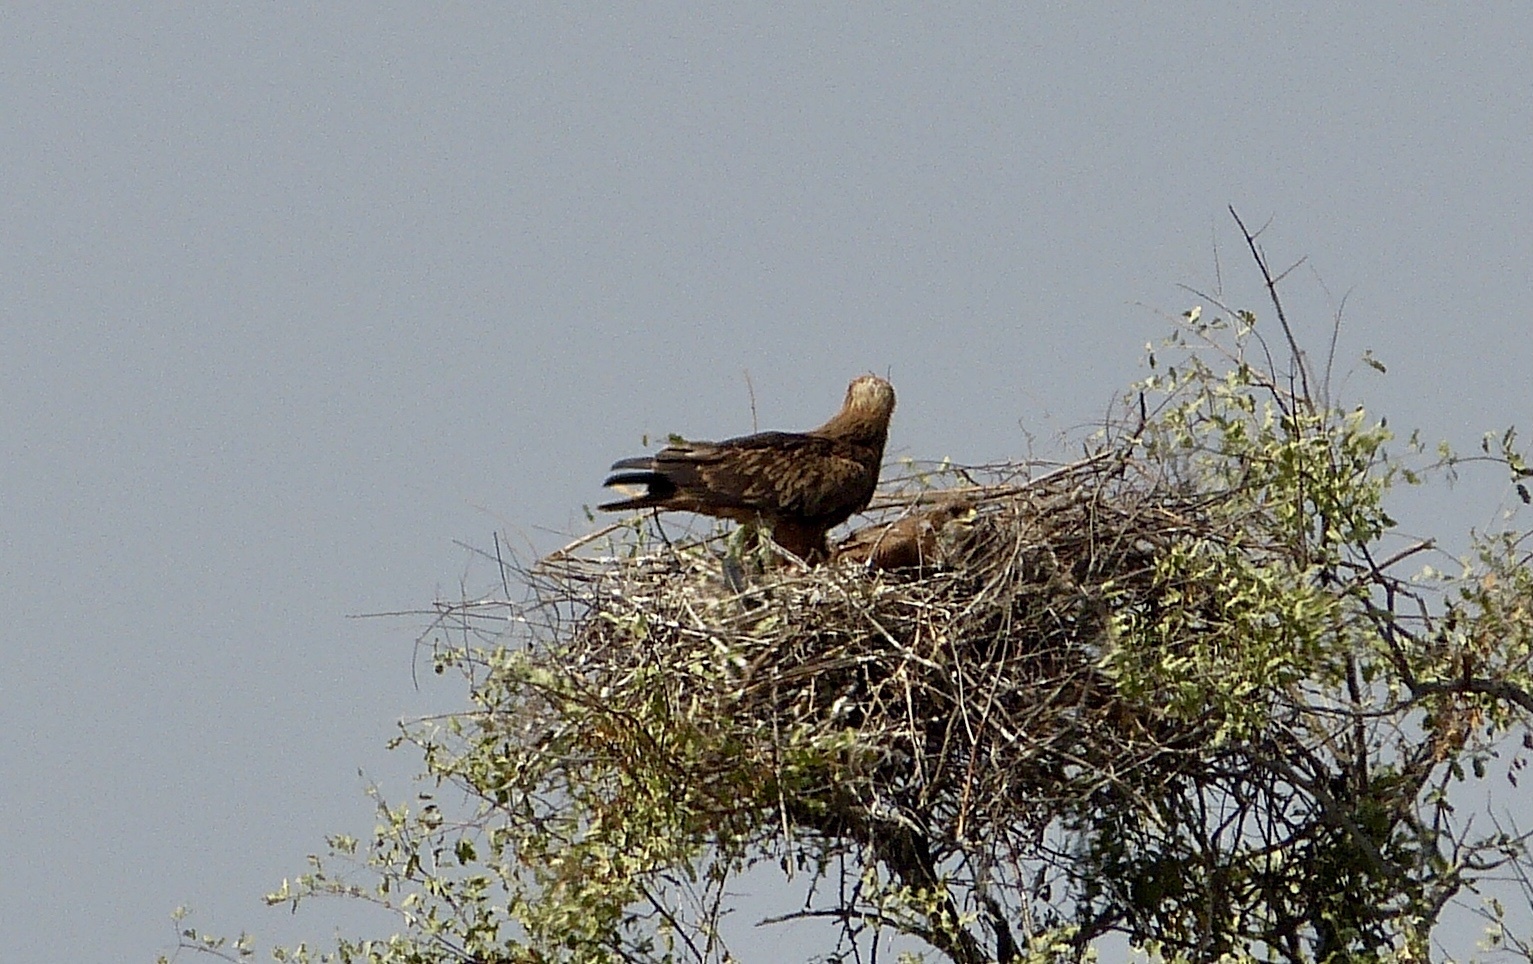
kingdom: Animalia
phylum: Chordata
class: Aves
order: Accipitriformes
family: Accipitridae
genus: Aquila
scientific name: Aquila rapax
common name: Tawny eagle
